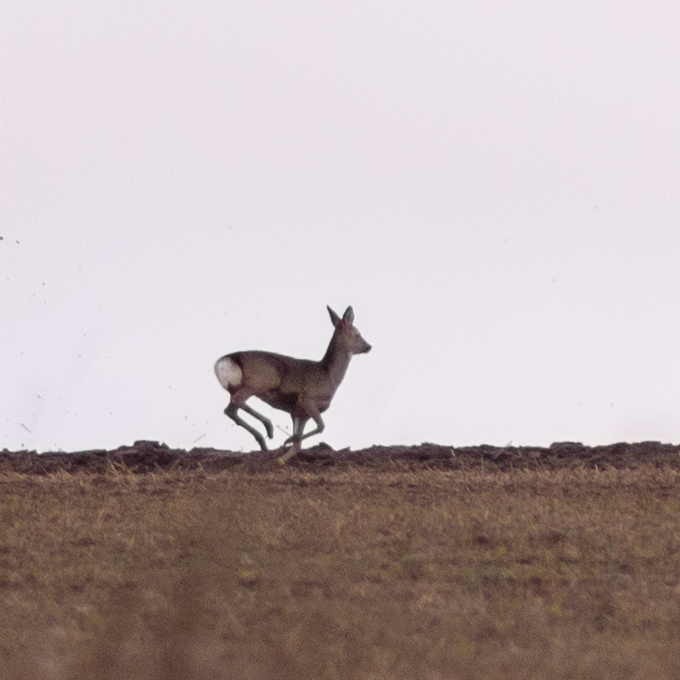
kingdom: Animalia
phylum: Chordata
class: Mammalia
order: Artiodactyla
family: Cervidae
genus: Capreolus
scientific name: Capreolus capreolus
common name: Western roe deer
